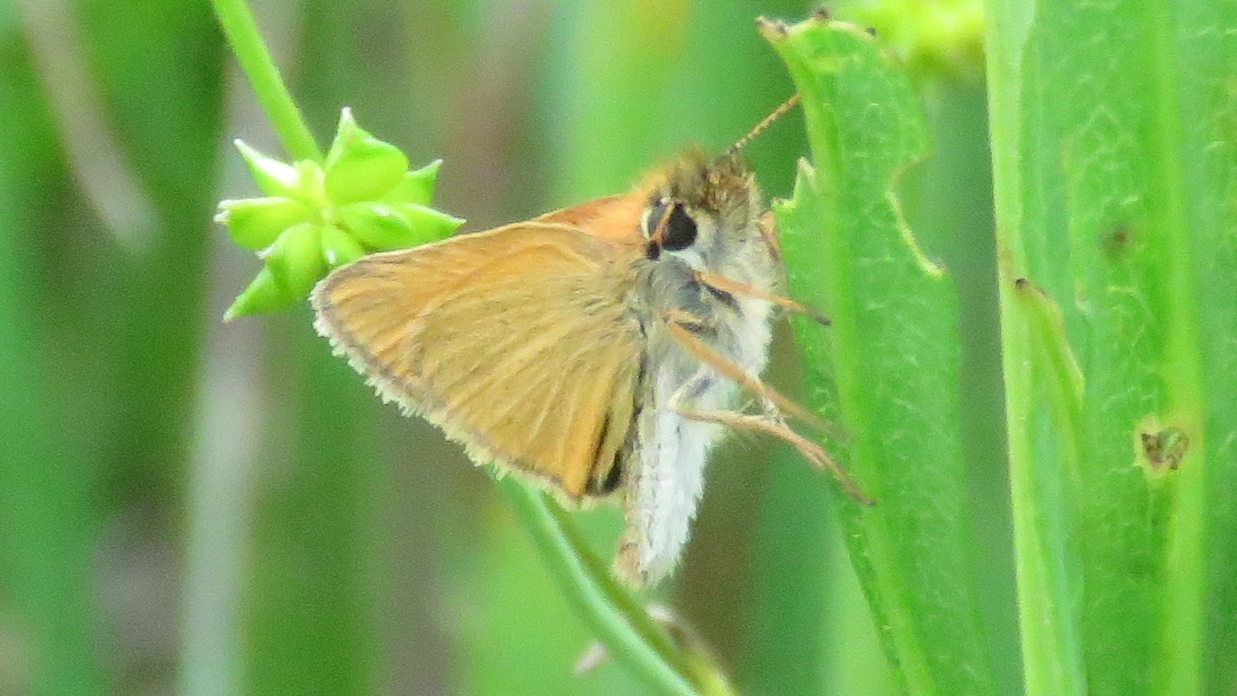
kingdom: Animalia
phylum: Arthropoda
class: Insecta
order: Lepidoptera
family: Hesperiidae
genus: Thymelicus
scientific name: Thymelicus lineola
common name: Essex skipper
